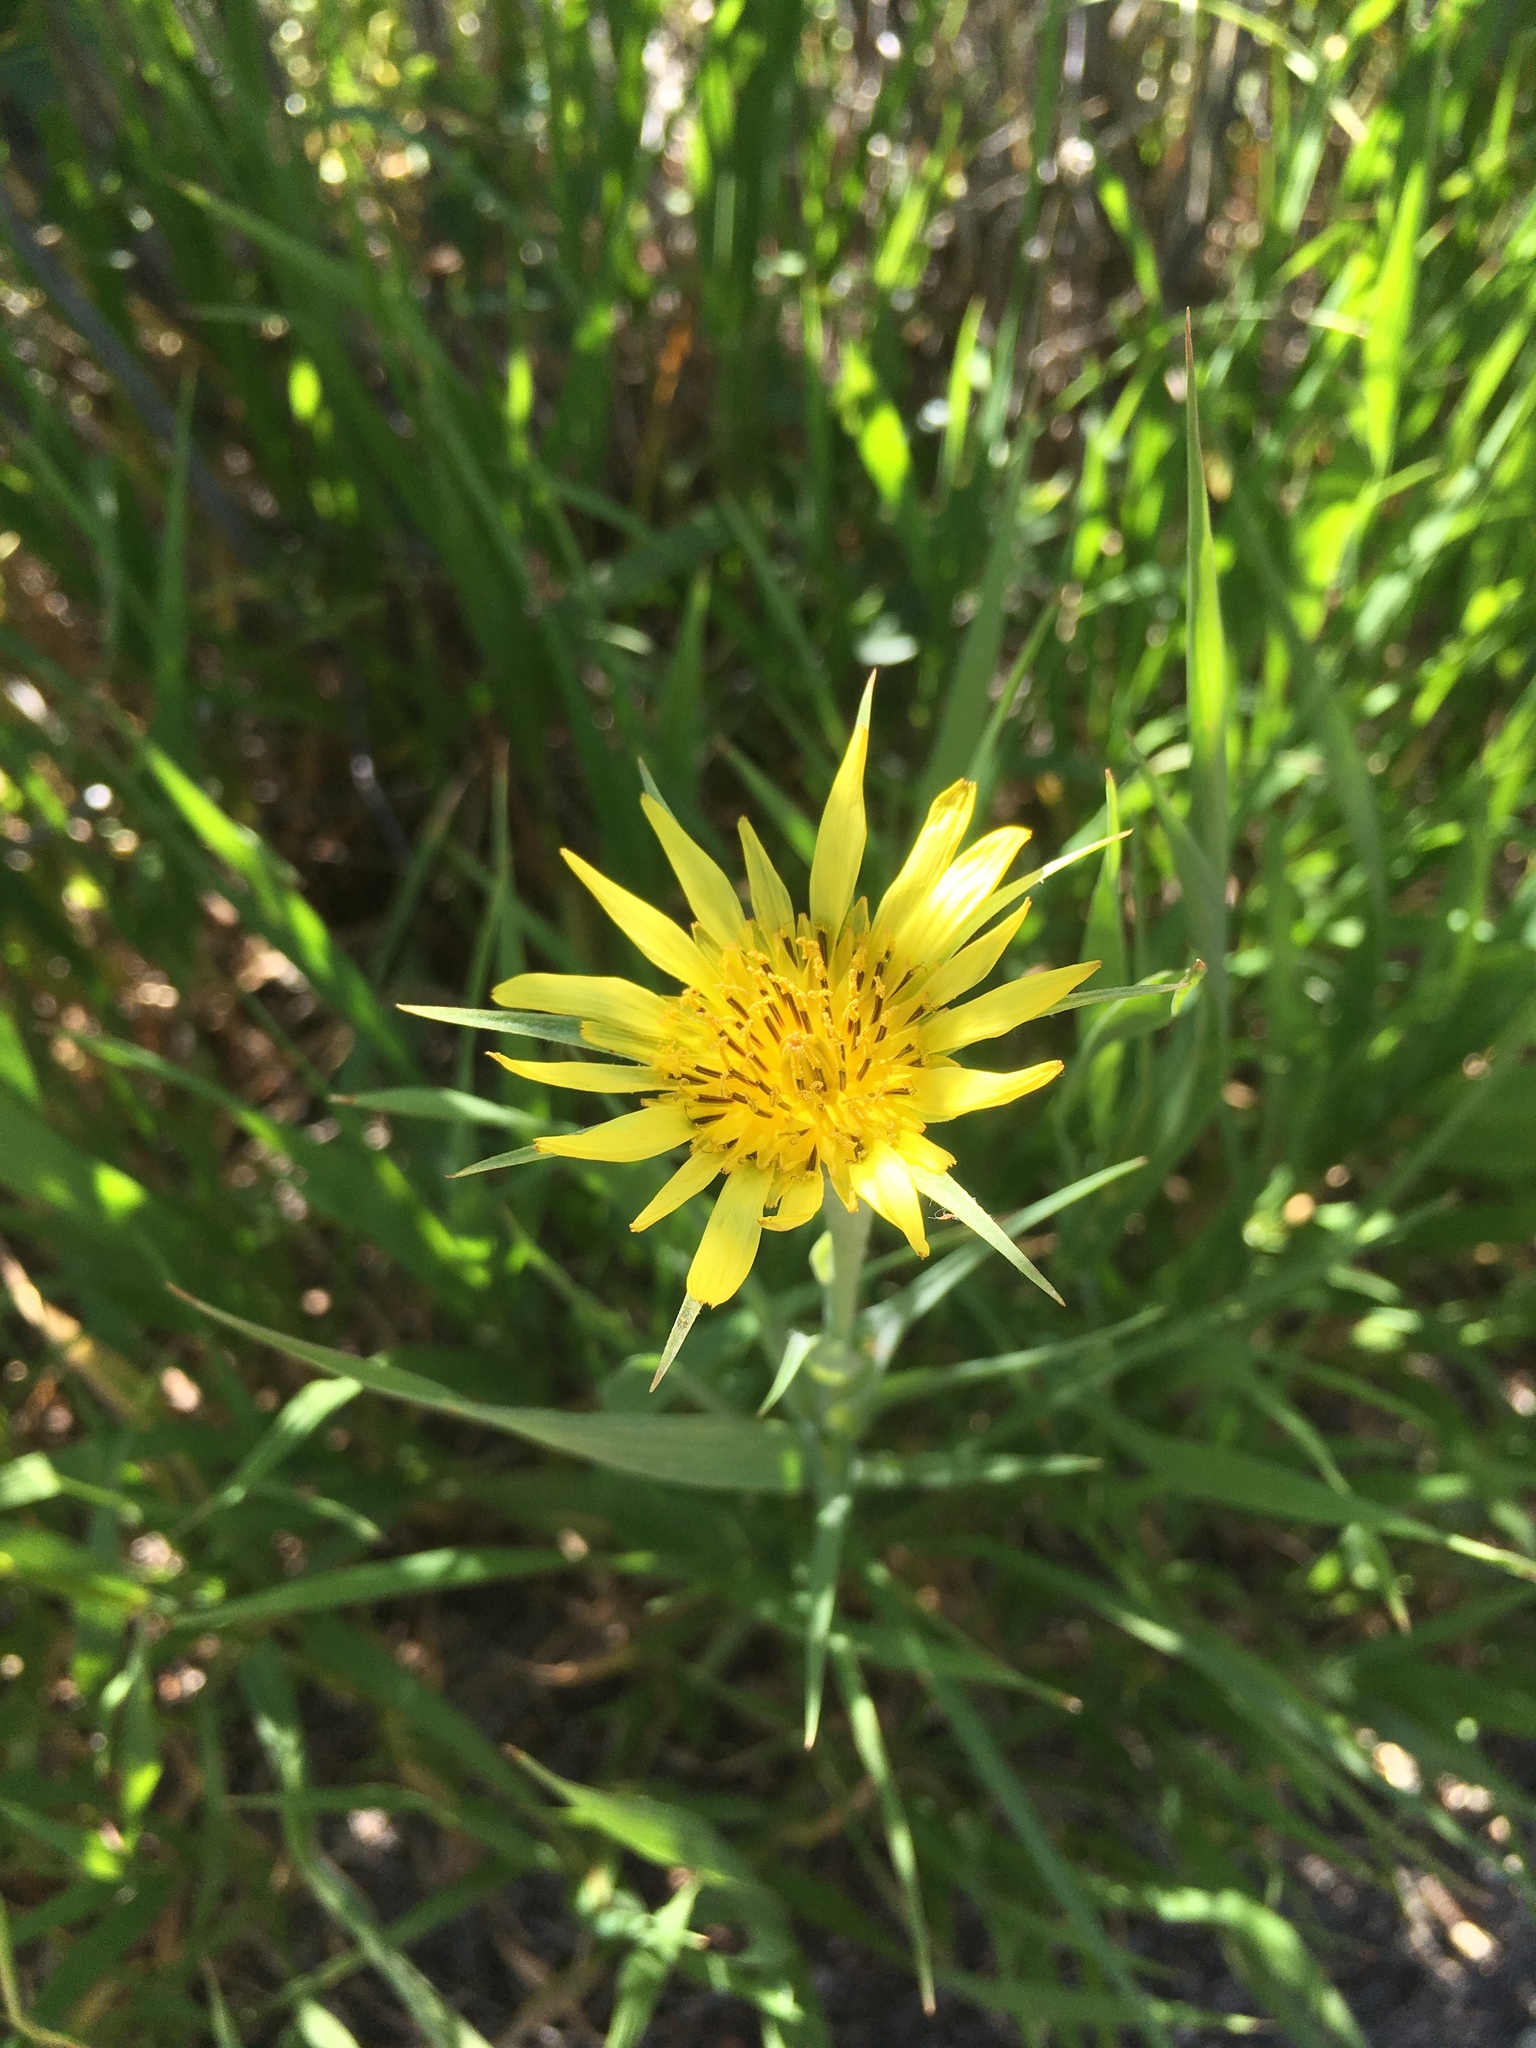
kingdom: Plantae
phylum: Tracheophyta
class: Magnoliopsida
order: Asterales
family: Asteraceae
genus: Tragopogon
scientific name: Tragopogon dubius
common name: Yellow salsify
